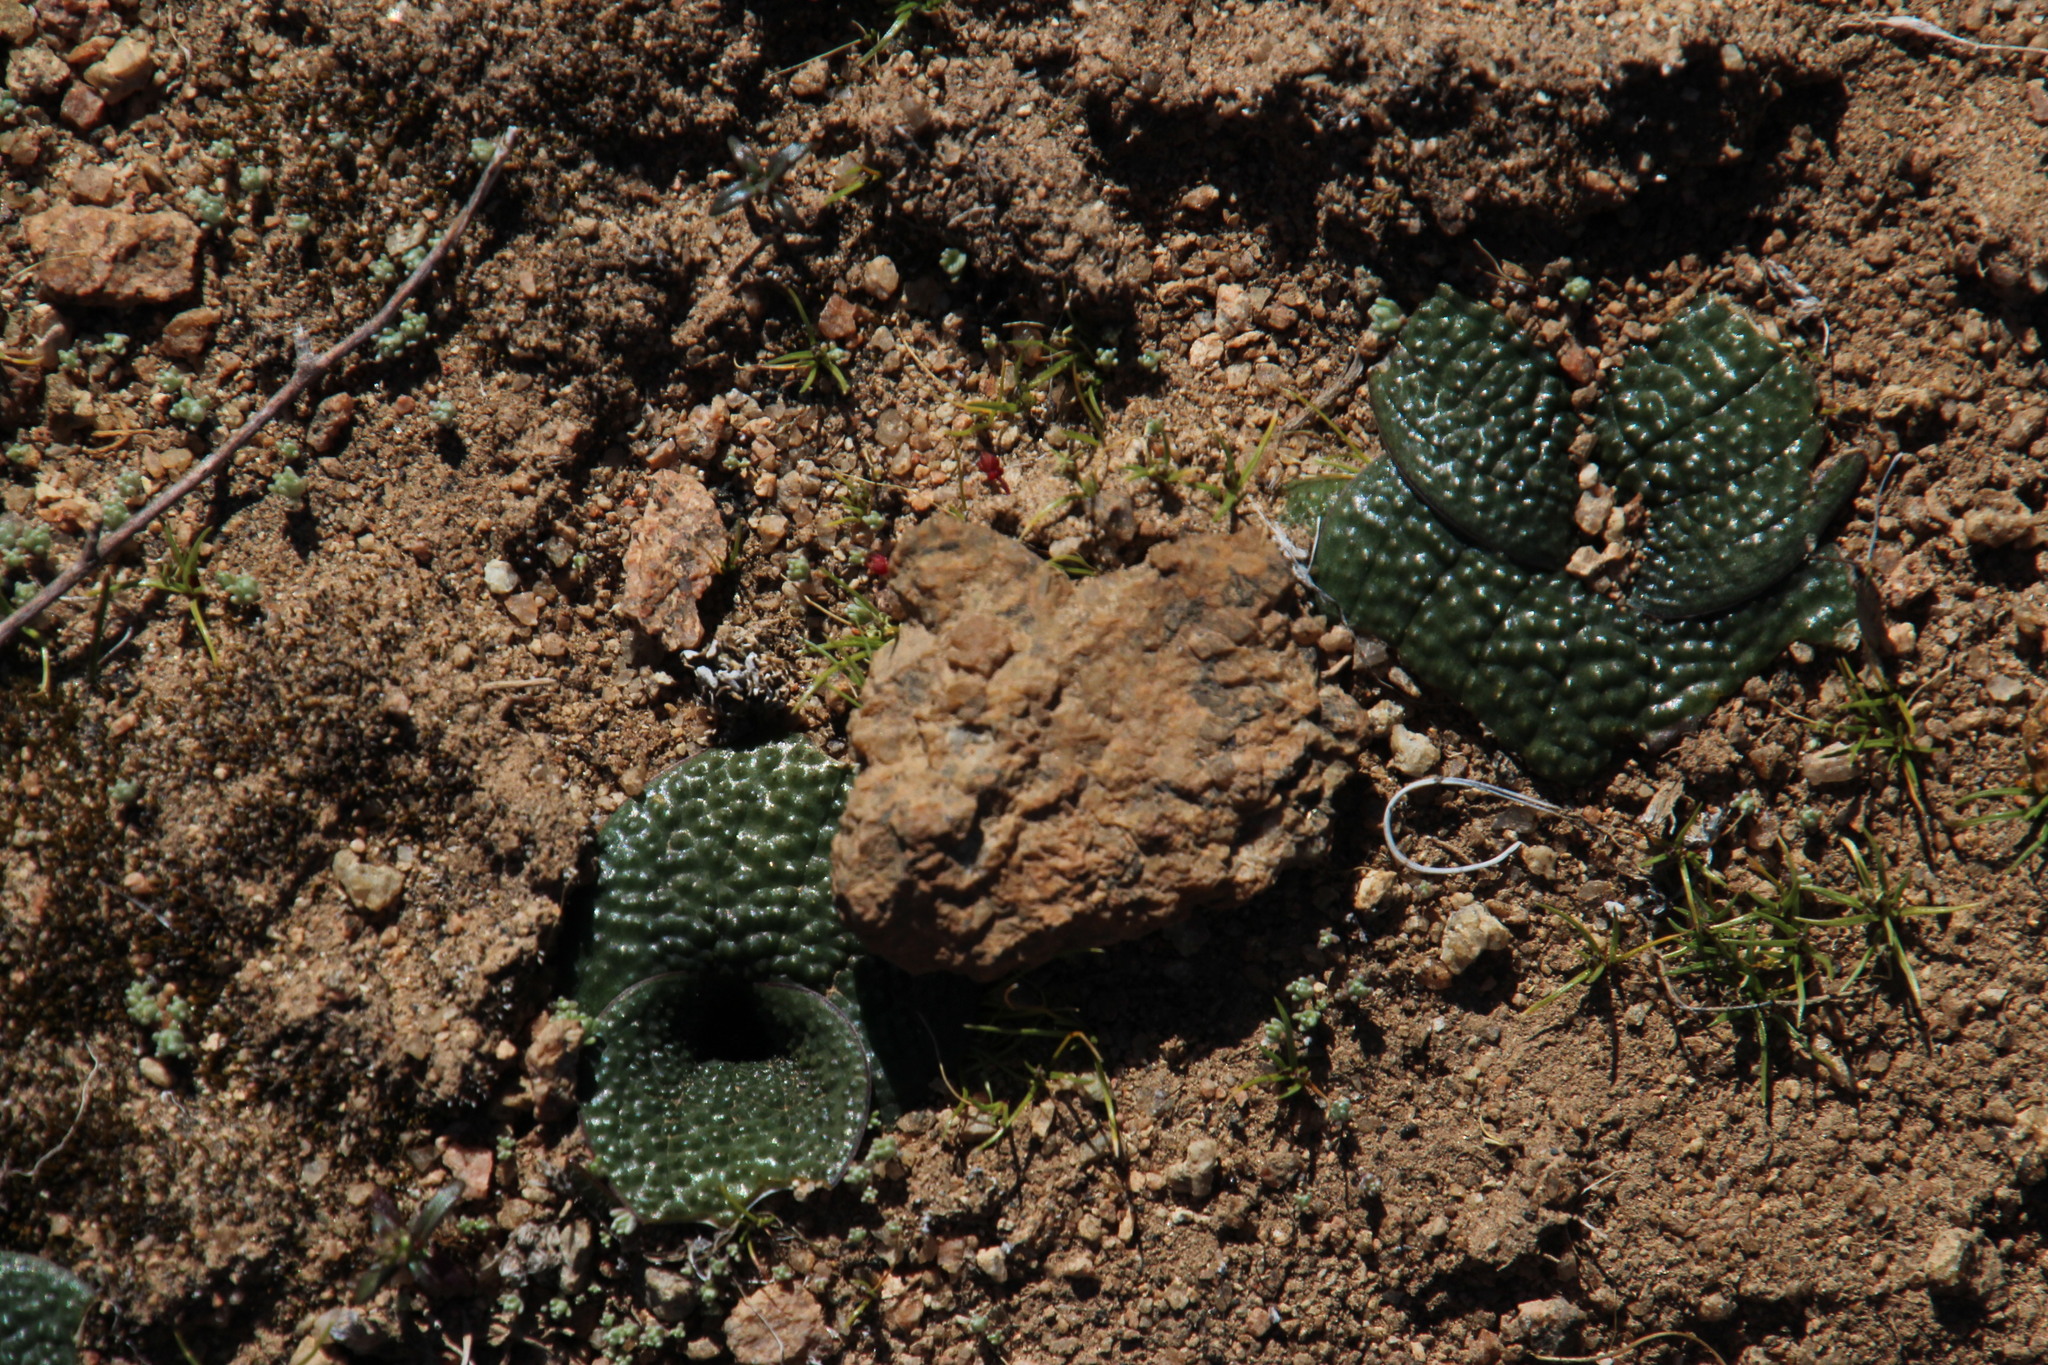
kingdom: Plantae
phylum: Tracheophyta
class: Liliopsida
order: Asparagales
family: Asparagaceae
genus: Massonia
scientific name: Massonia pygmaea
